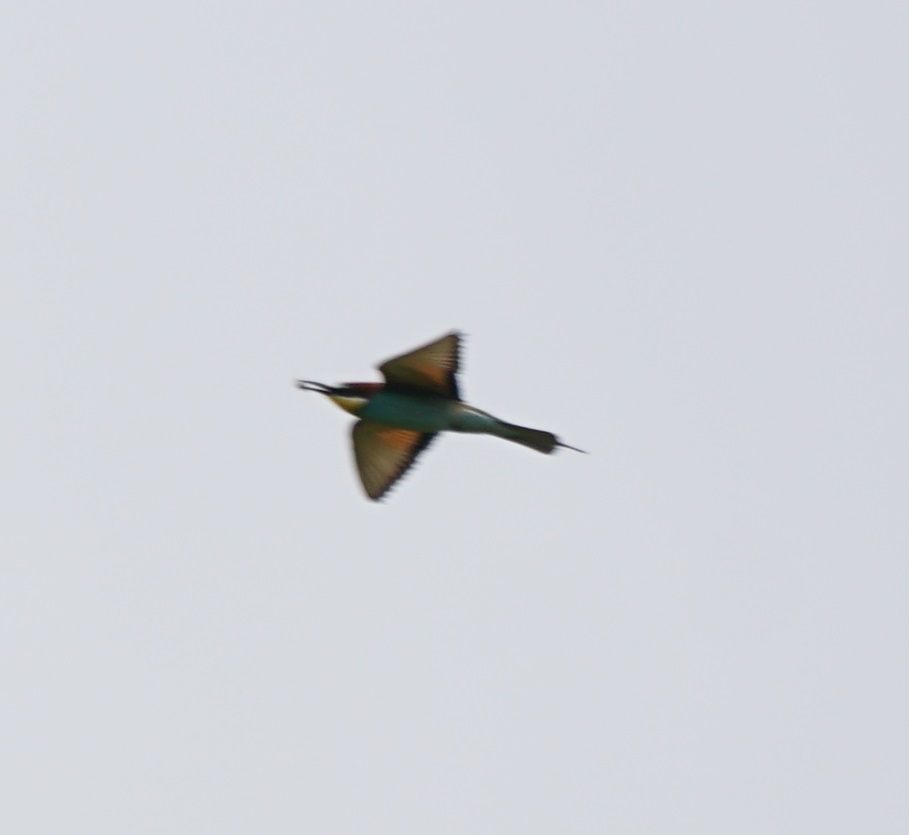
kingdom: Animalia
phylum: Chordata
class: Aves
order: Coraciiformes
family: Meropidae
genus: Merops
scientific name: Merops apiaster
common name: European bee-eater
